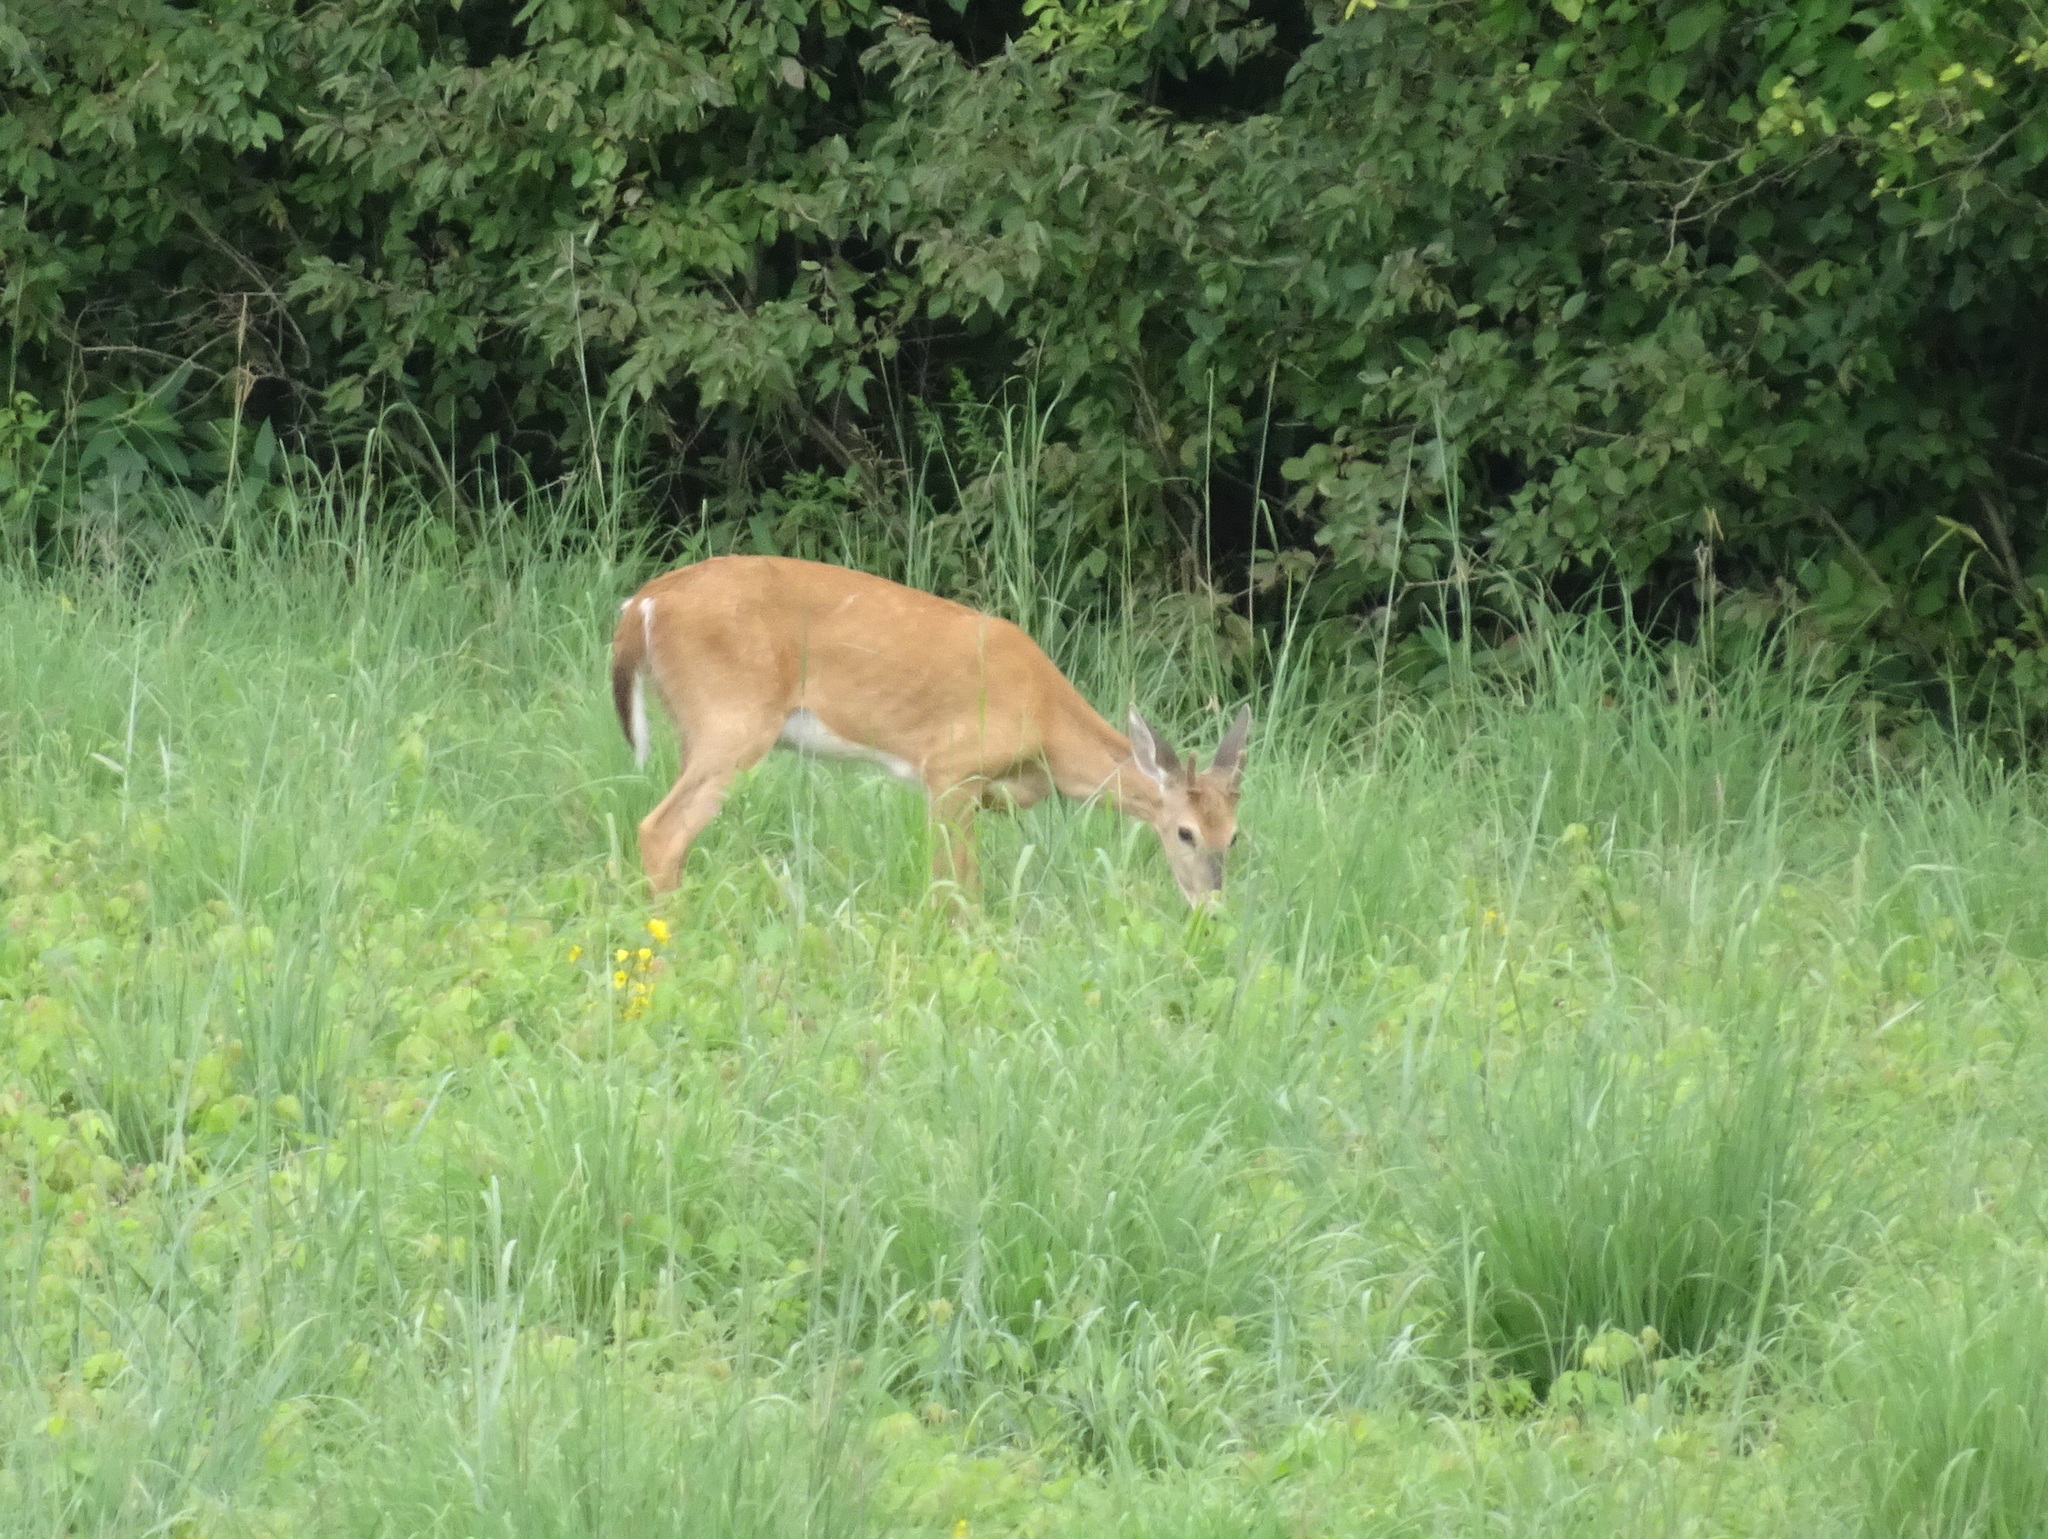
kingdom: Animalia
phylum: Chordata
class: Mammalia
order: Artiodactyla
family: Cervidae
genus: Odocoileus
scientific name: Odocoileus virginianus
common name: White-tailed deer
